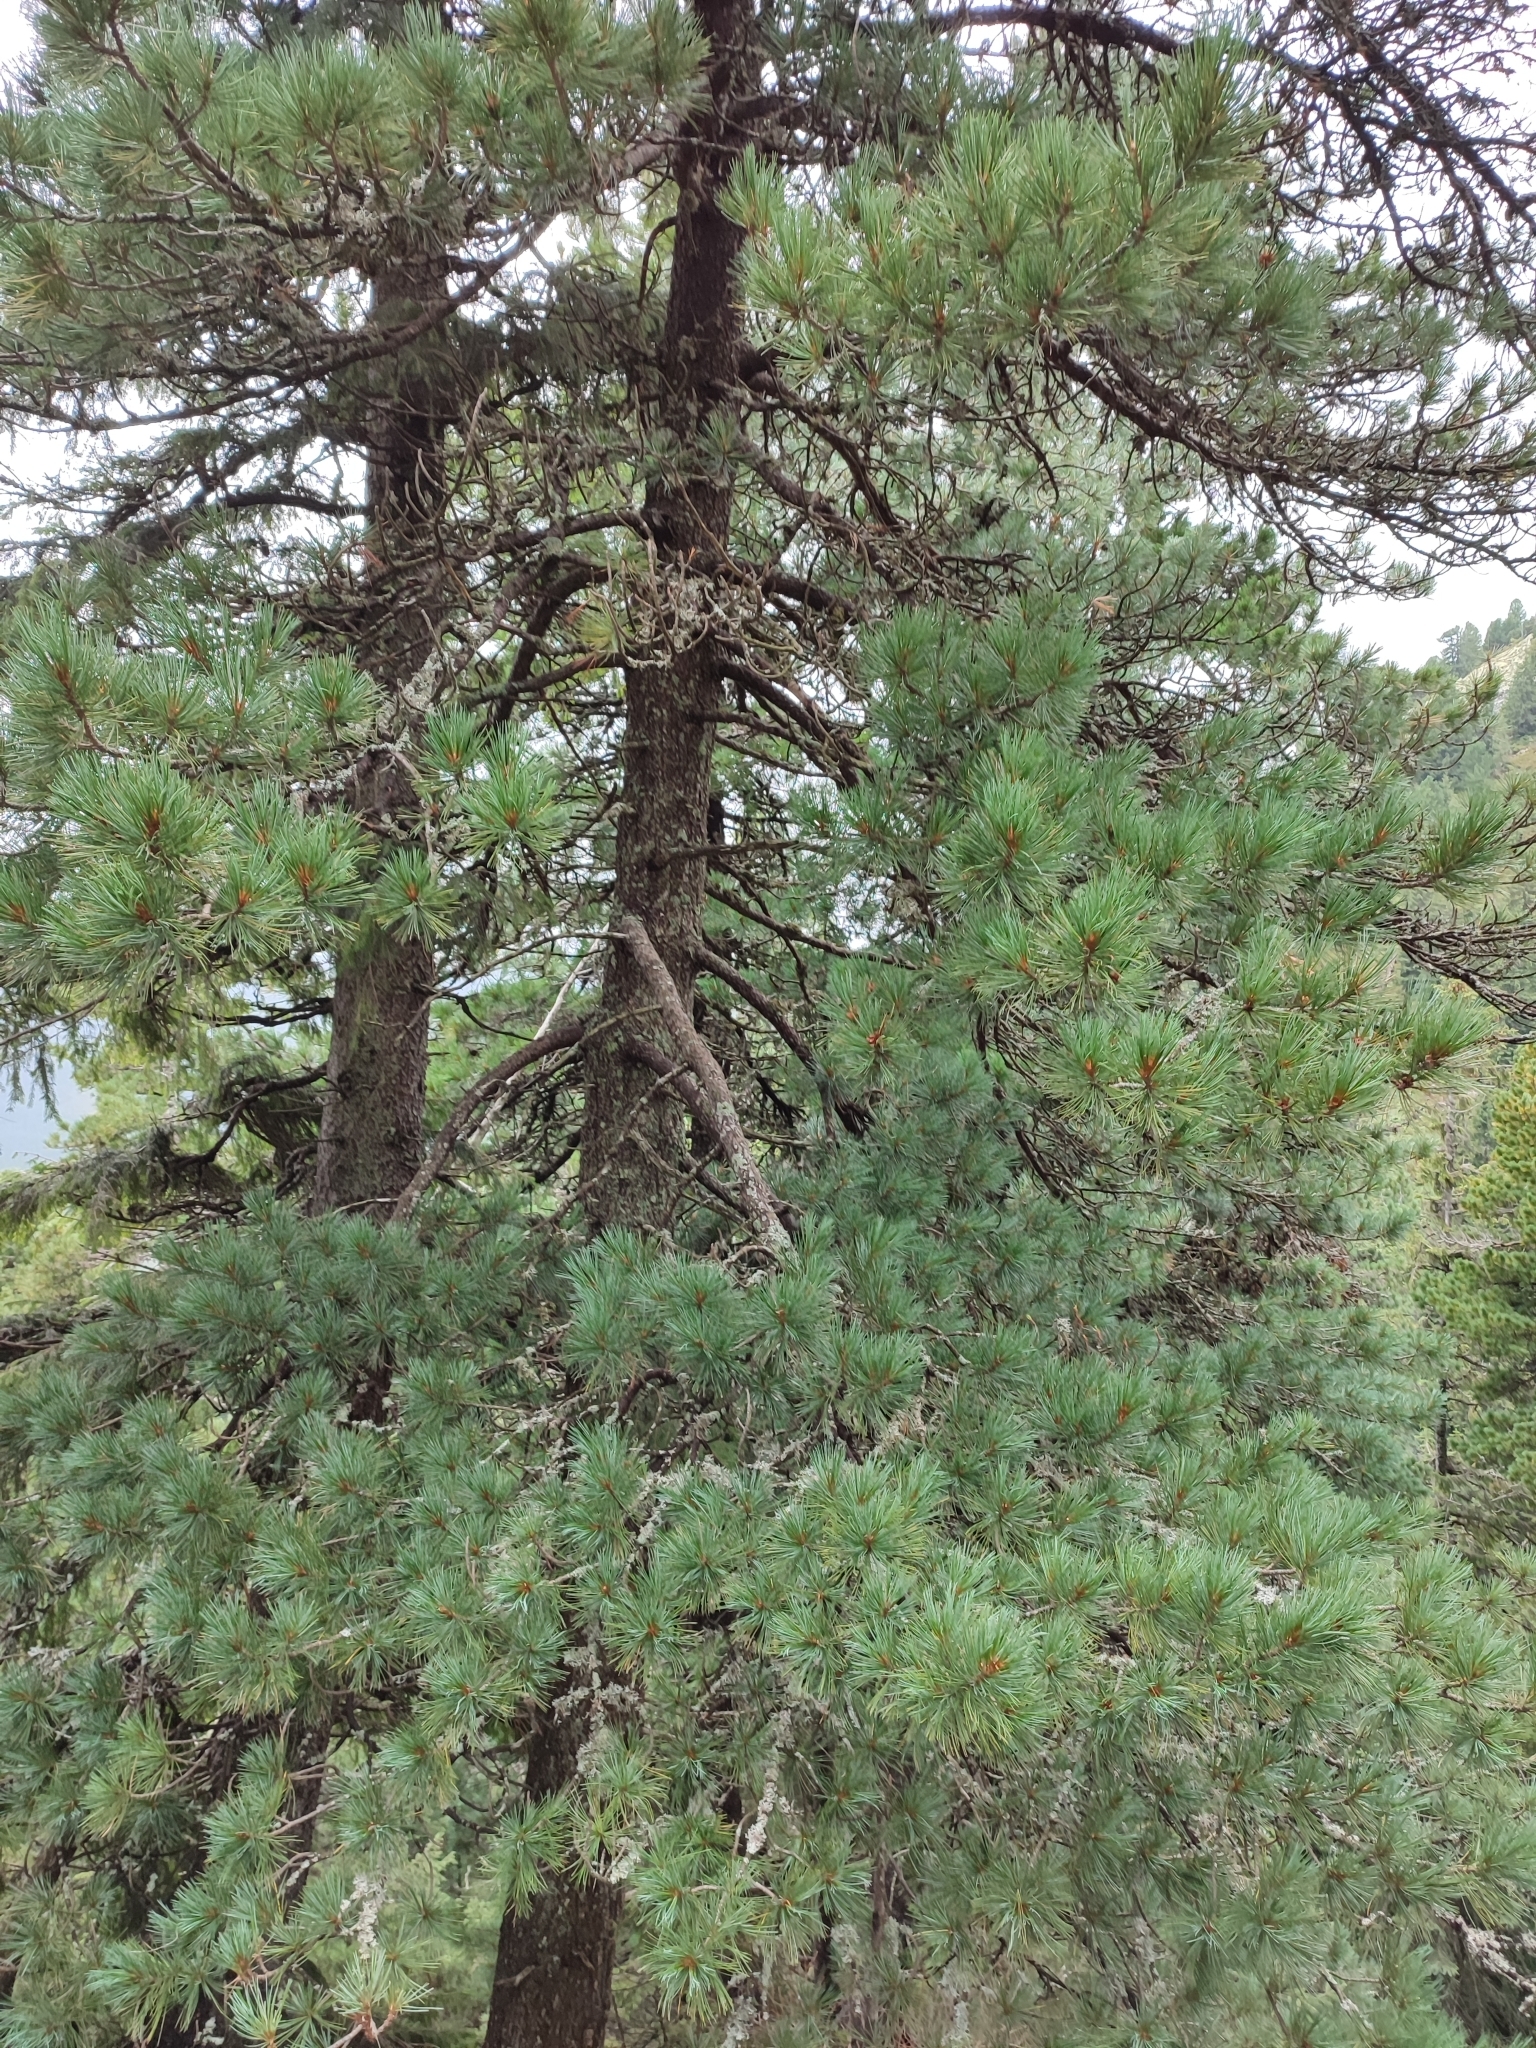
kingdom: Plantae
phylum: Tracheophyta
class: Pinopsida
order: Pinales
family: Pinaceae
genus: Pinus
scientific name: Pinus cembra
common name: Arolla pine
